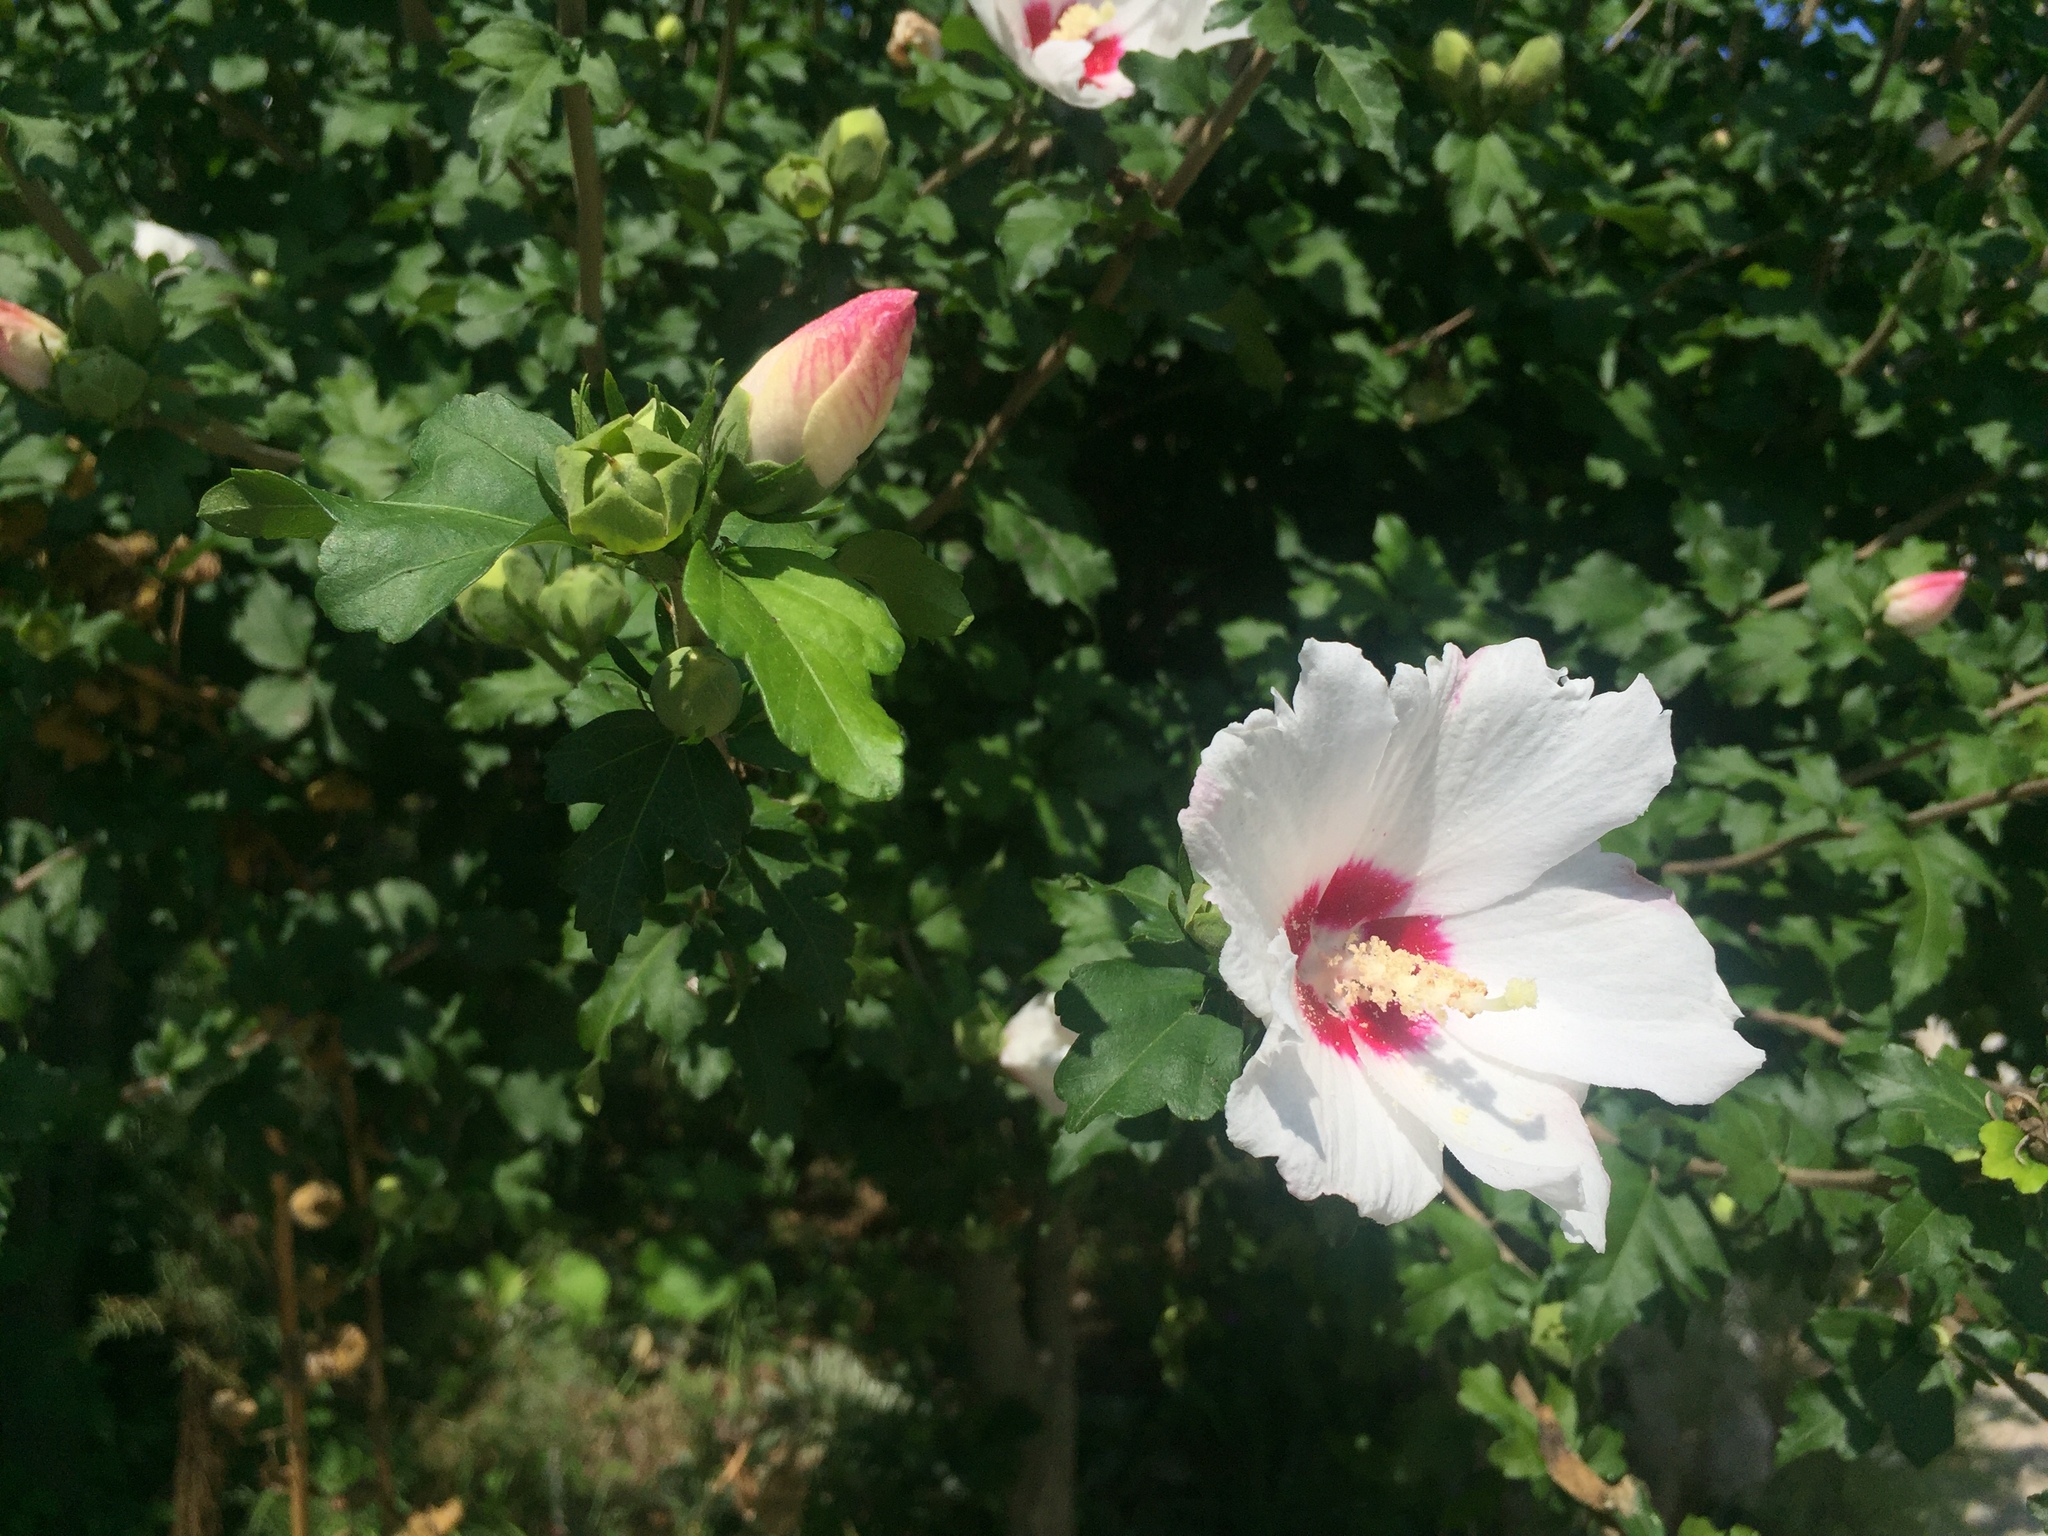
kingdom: Plantae
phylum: Tracheophyta
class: Magnoliopsida
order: Malvales
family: Malvaceae
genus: Hibiscus
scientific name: Hibiscus syriacus
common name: Syrian ketmia
